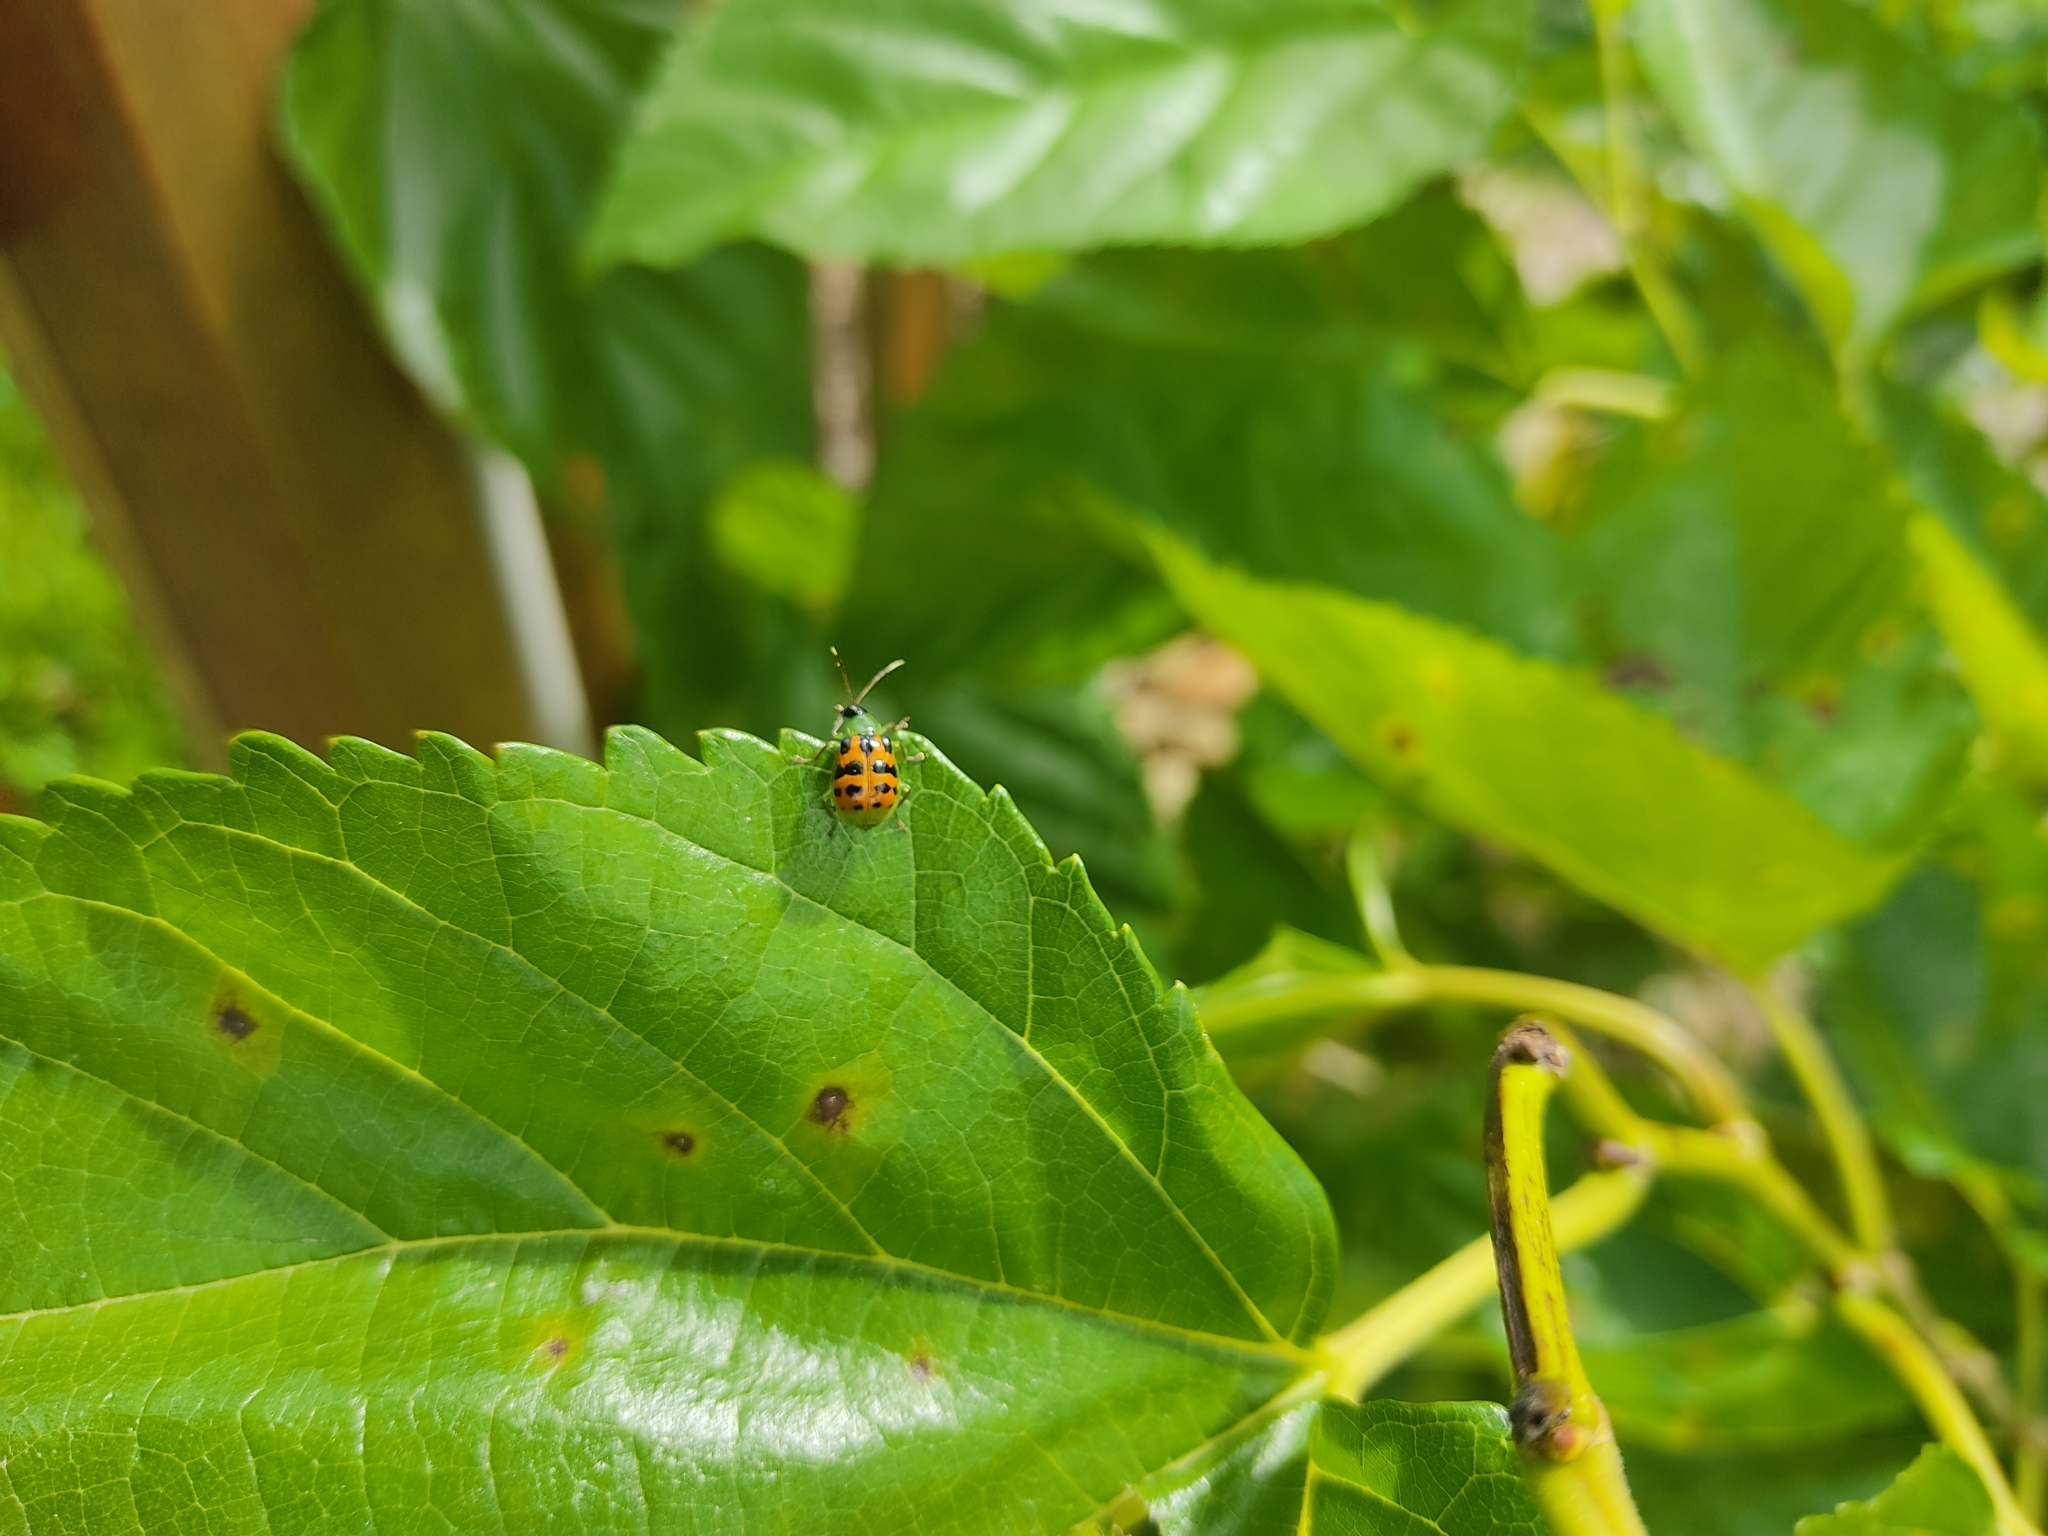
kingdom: Animalia
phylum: Arthropoda
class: Insecta
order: Coleoptera
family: Chrysomelidae
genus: Diabrotica
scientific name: Diabrotica limitata
